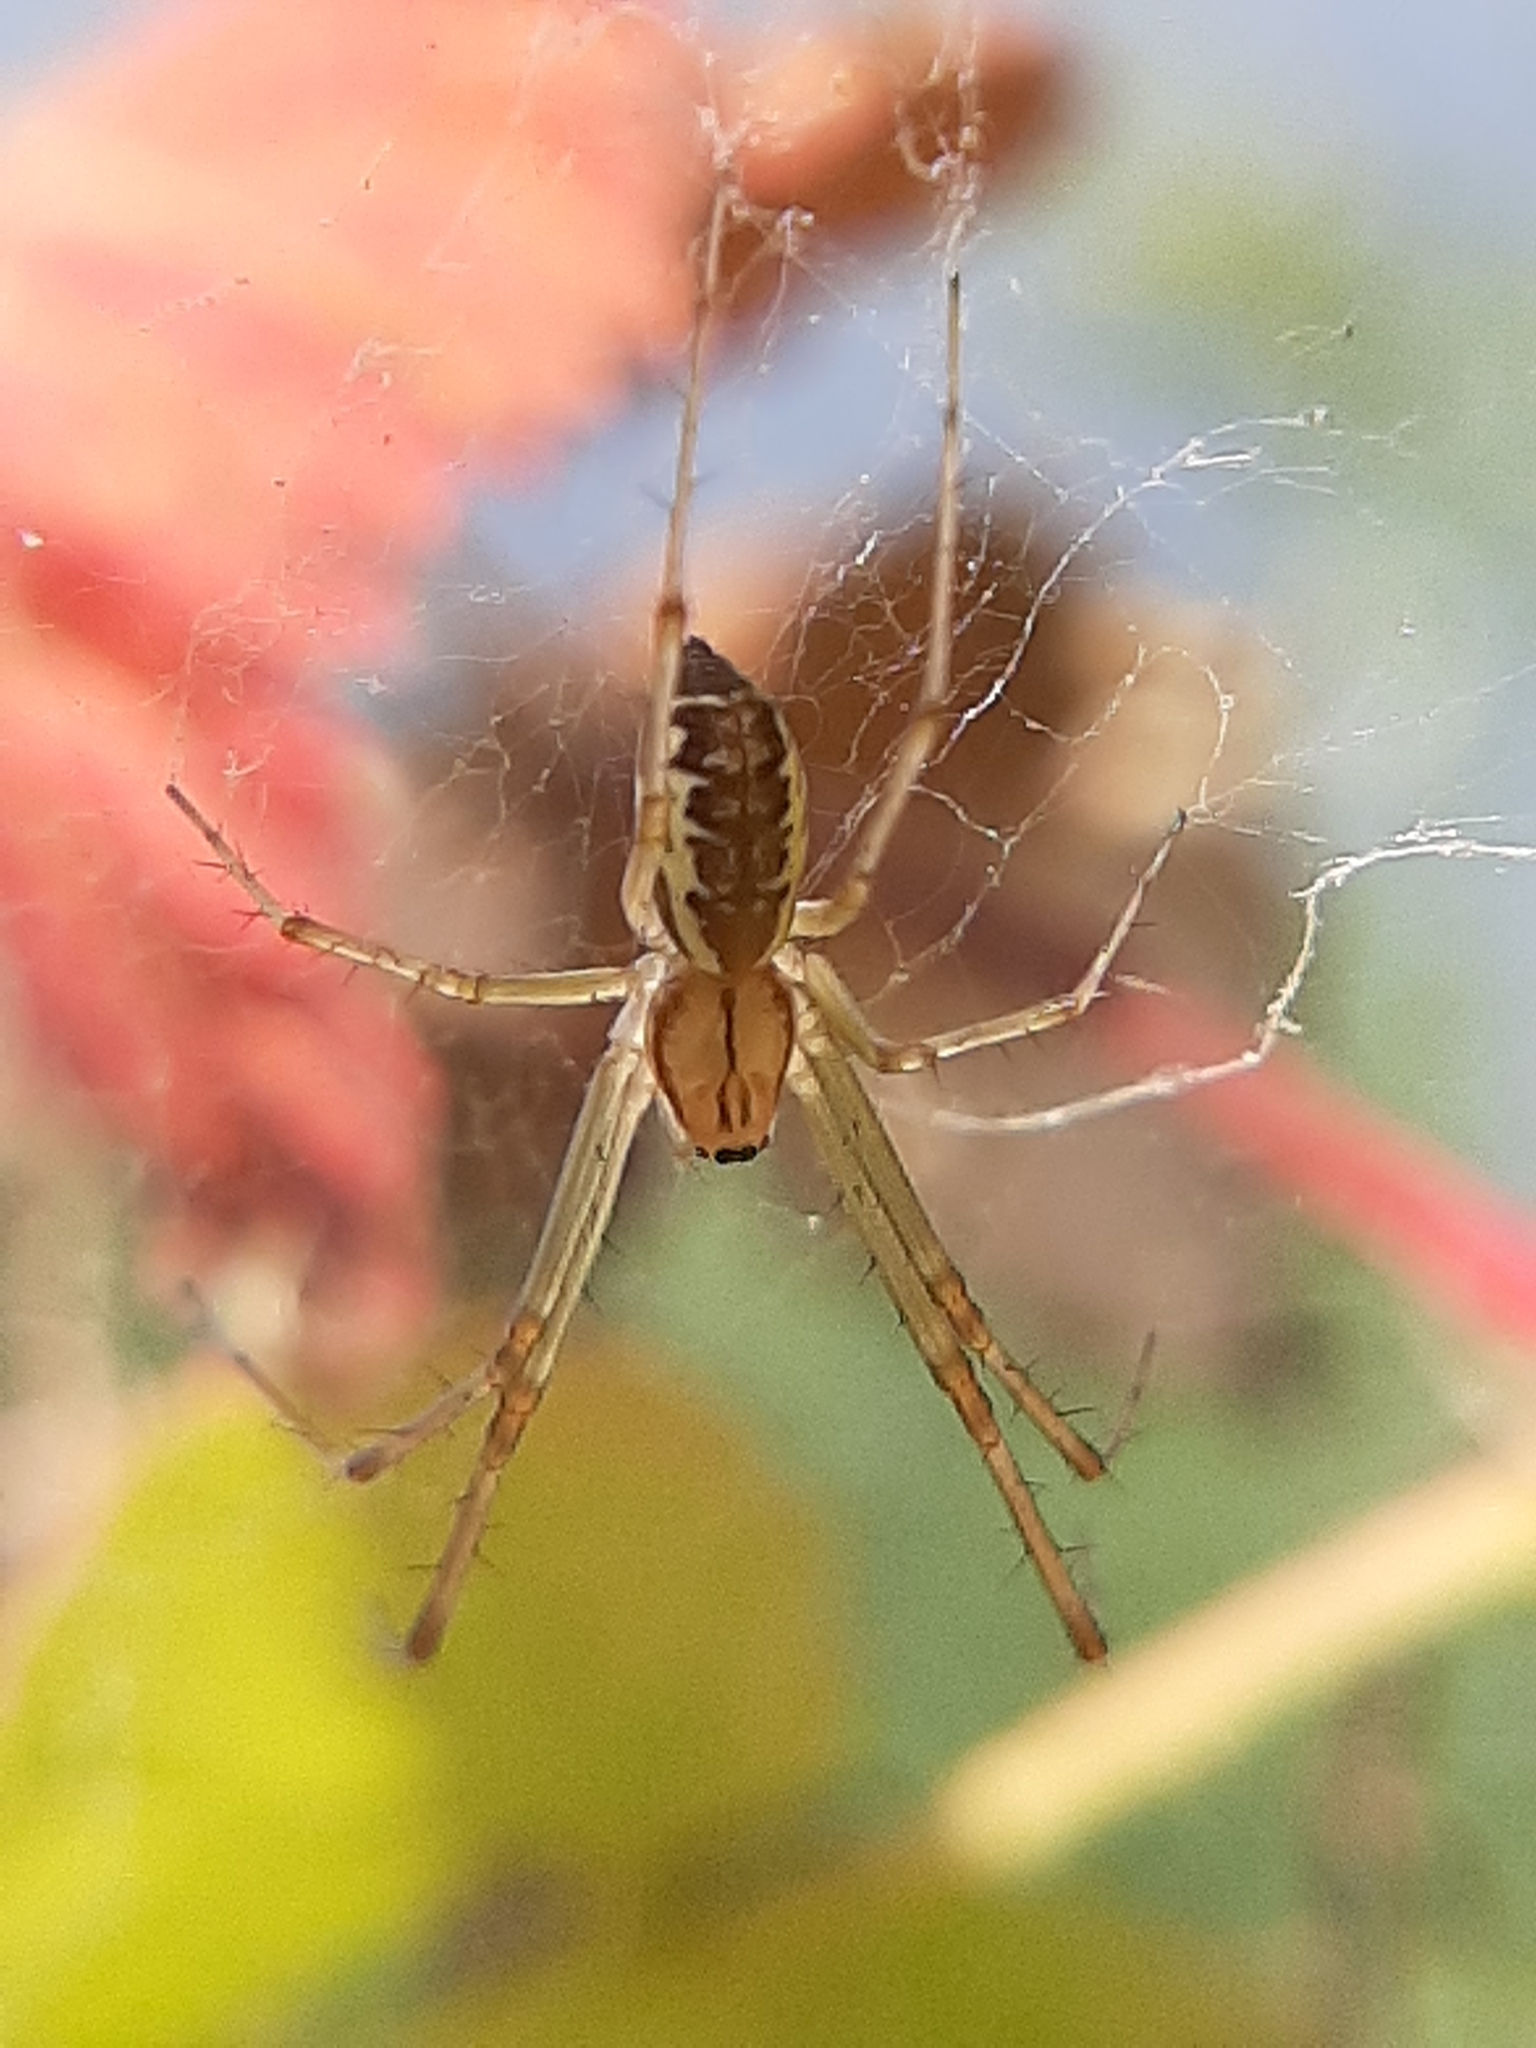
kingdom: Animalia
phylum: Arthropoda
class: Arachnida
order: Araneae
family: Linyphiidae
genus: Linyphia
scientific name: Linyphia triangularis
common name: Money spider
